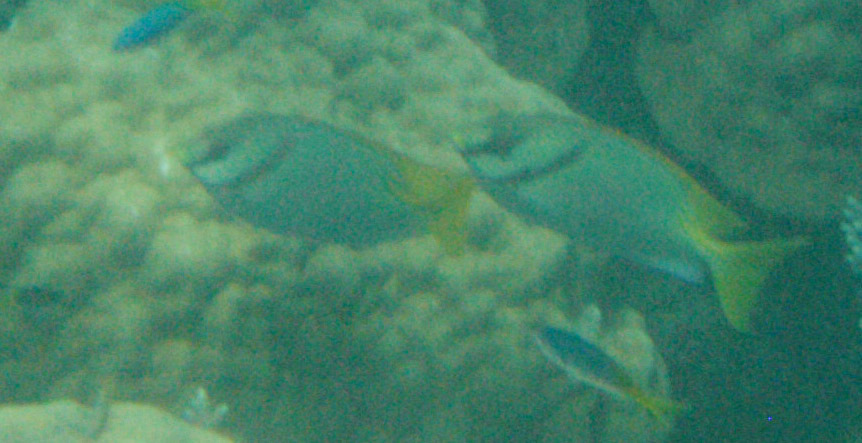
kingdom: Animalia
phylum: Chordata
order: Perciformes
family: Siganidae
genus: Siganus
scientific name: Siganus doliatus
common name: Barred spinefoot
